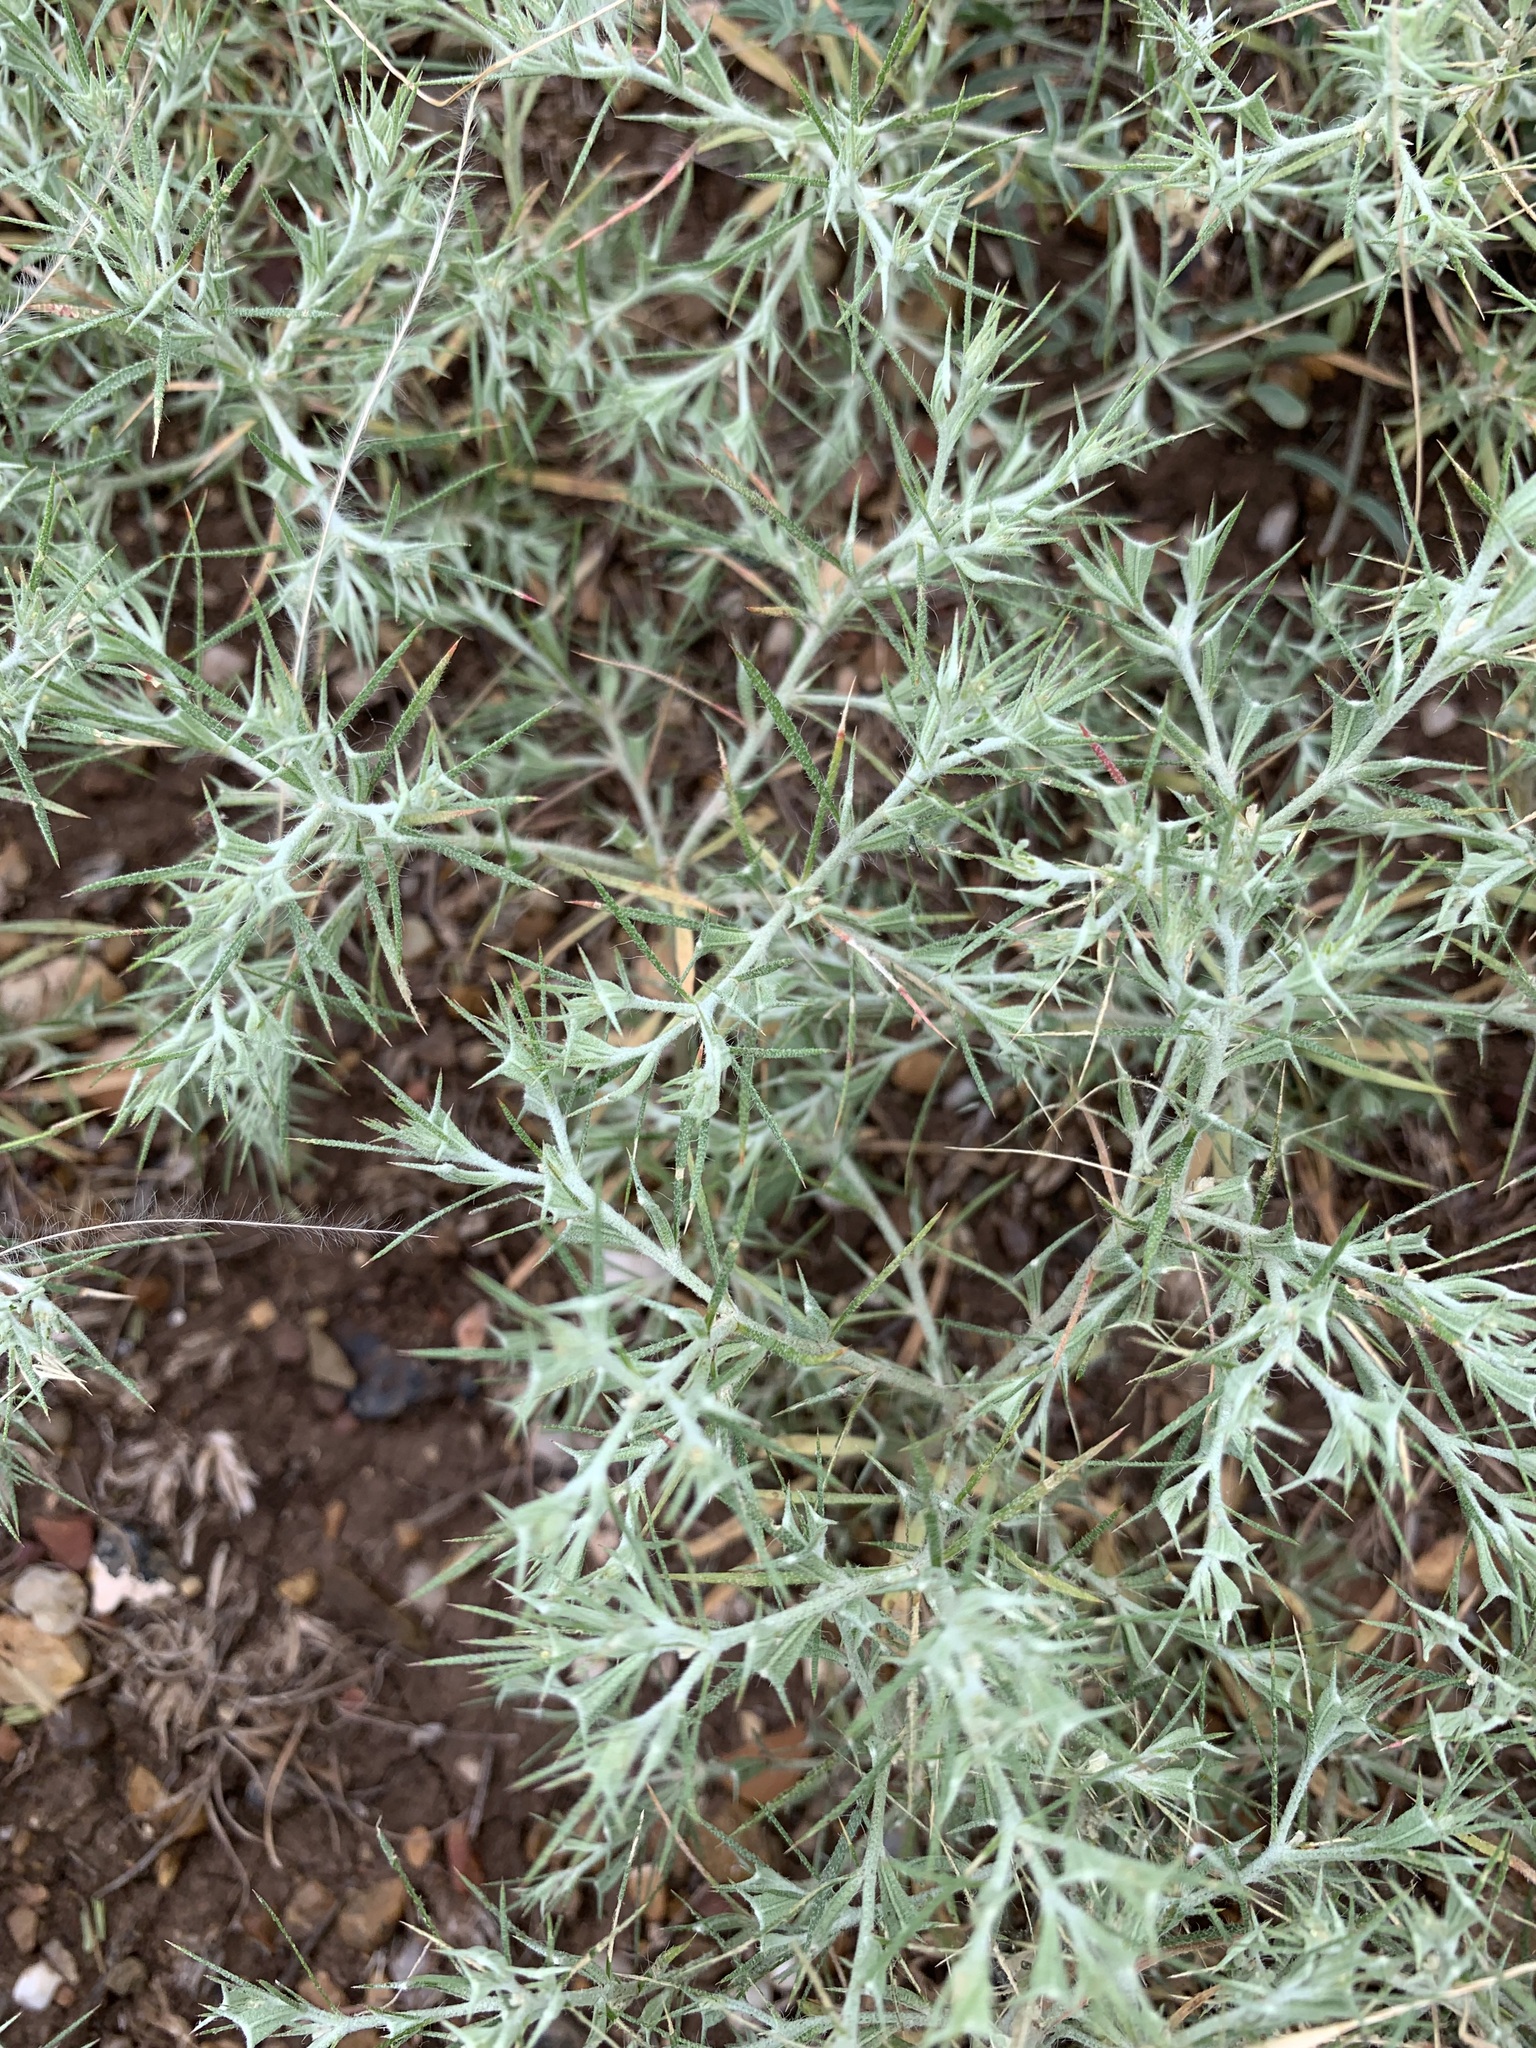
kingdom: Plantae
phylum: Tracheophyta
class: Magnoliopsida
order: Caryophyllales
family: Amaranthaceae
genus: Ceratocarpus
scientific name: Ceratocarpus arenarius
